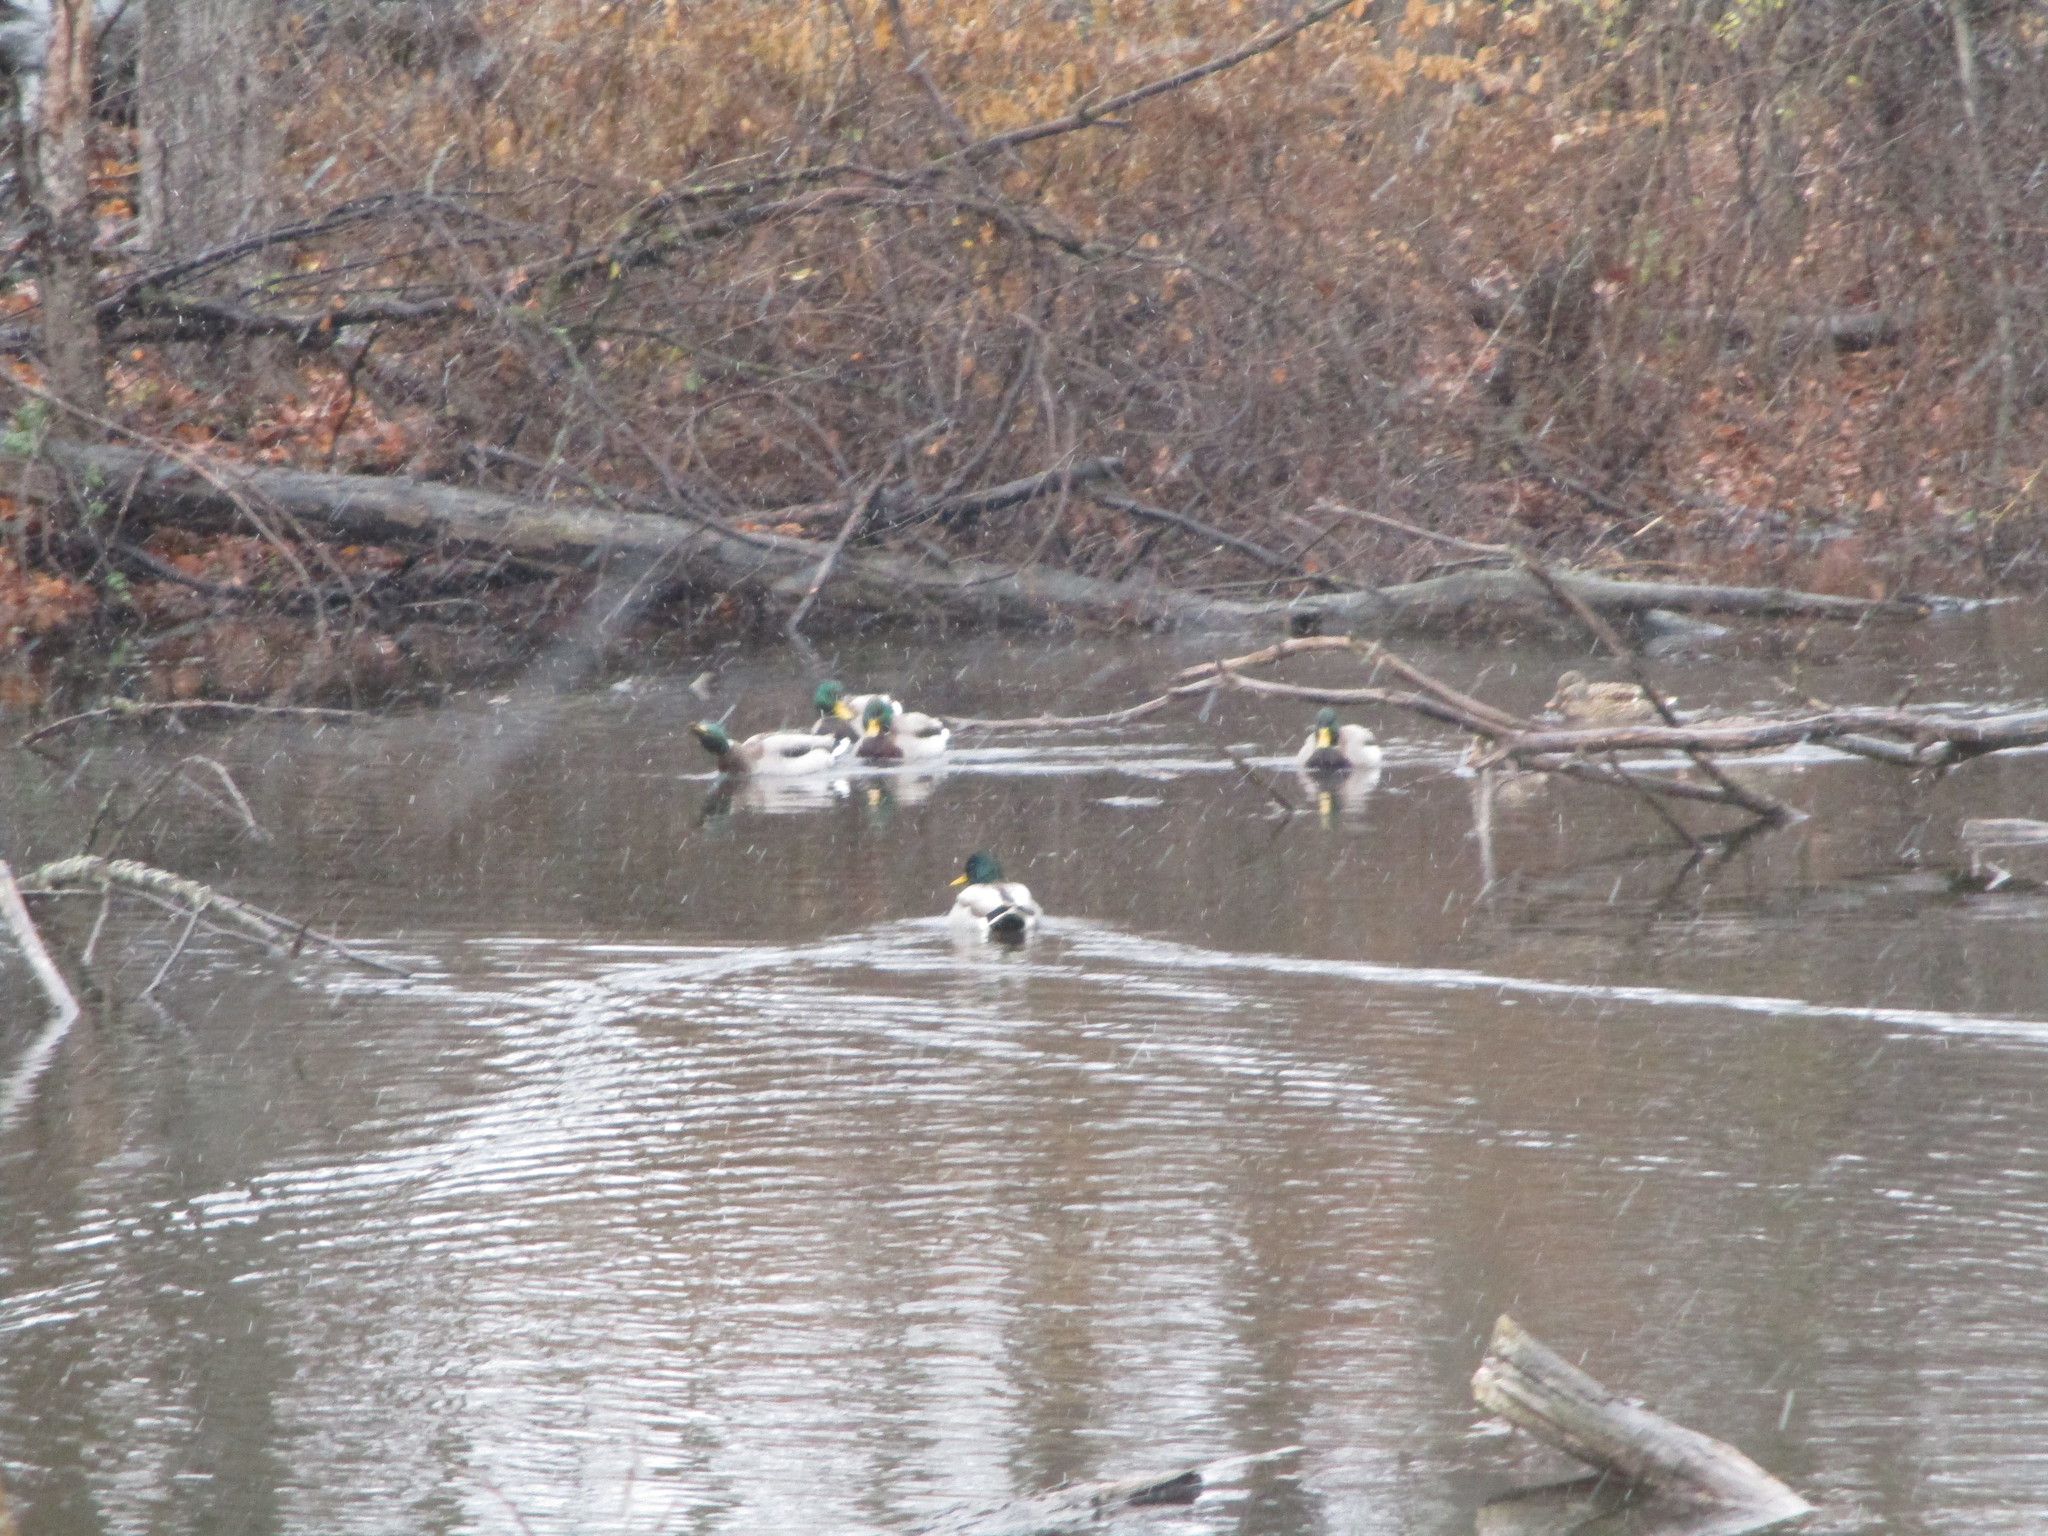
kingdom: Animalia
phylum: Chordata
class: Aves
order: Anseriformes
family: Anatidae
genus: Anas
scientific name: Anas platyrhynchos
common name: Mallard
